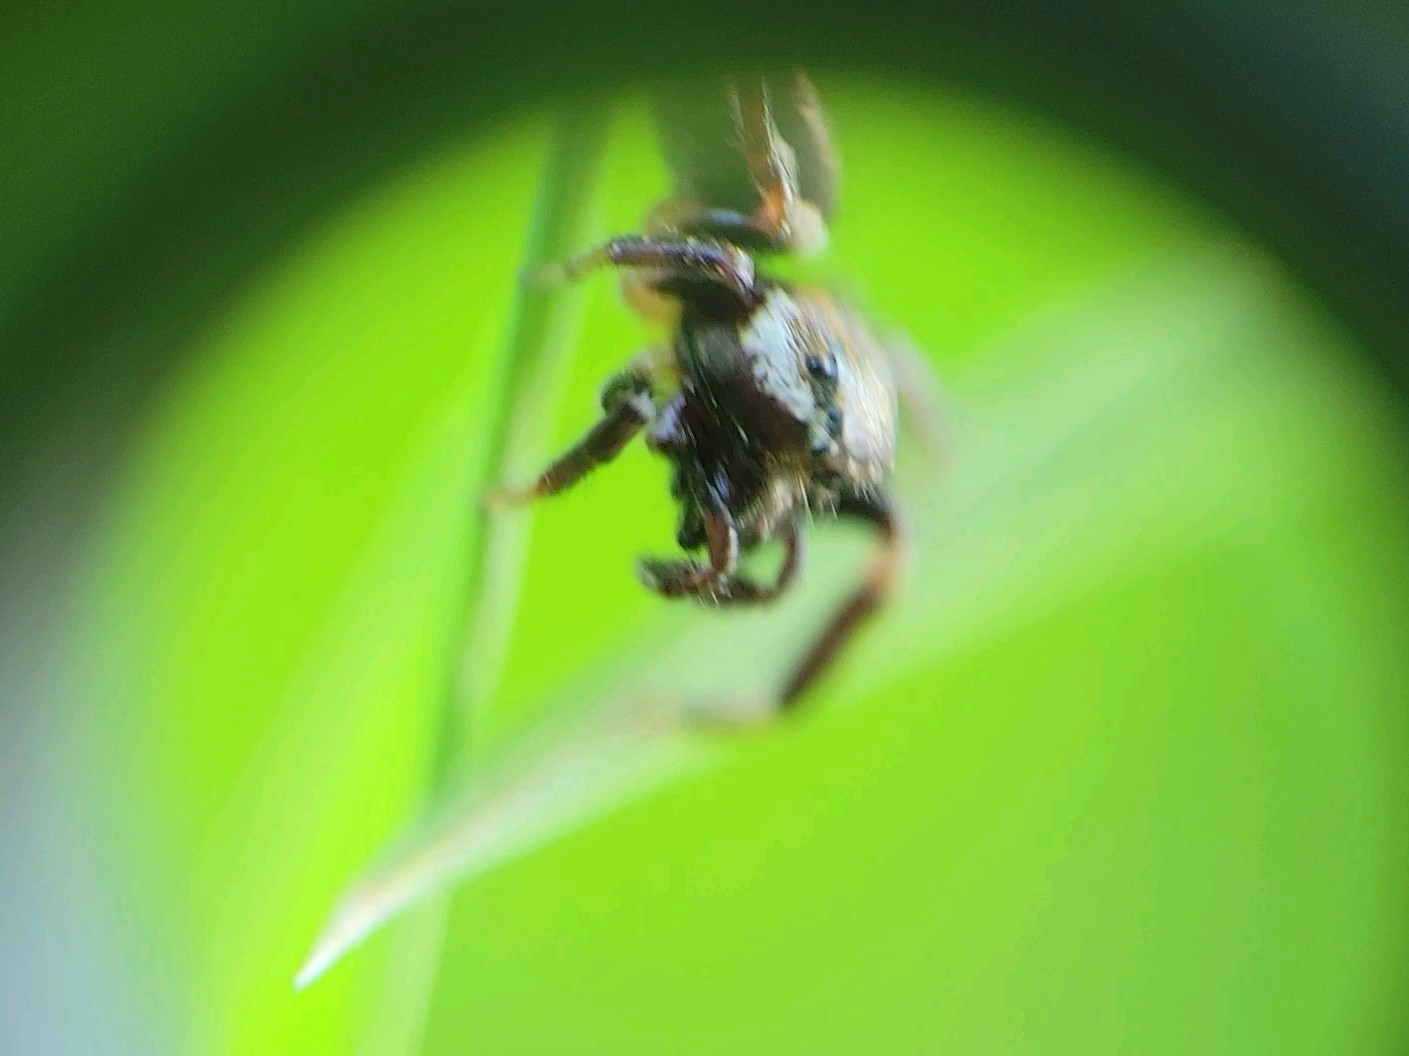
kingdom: Animalia
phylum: Arthropoda
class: Arachnida
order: Araneae
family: Salticidae
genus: Eris
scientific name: Eris militaris
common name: Bronze jumper
